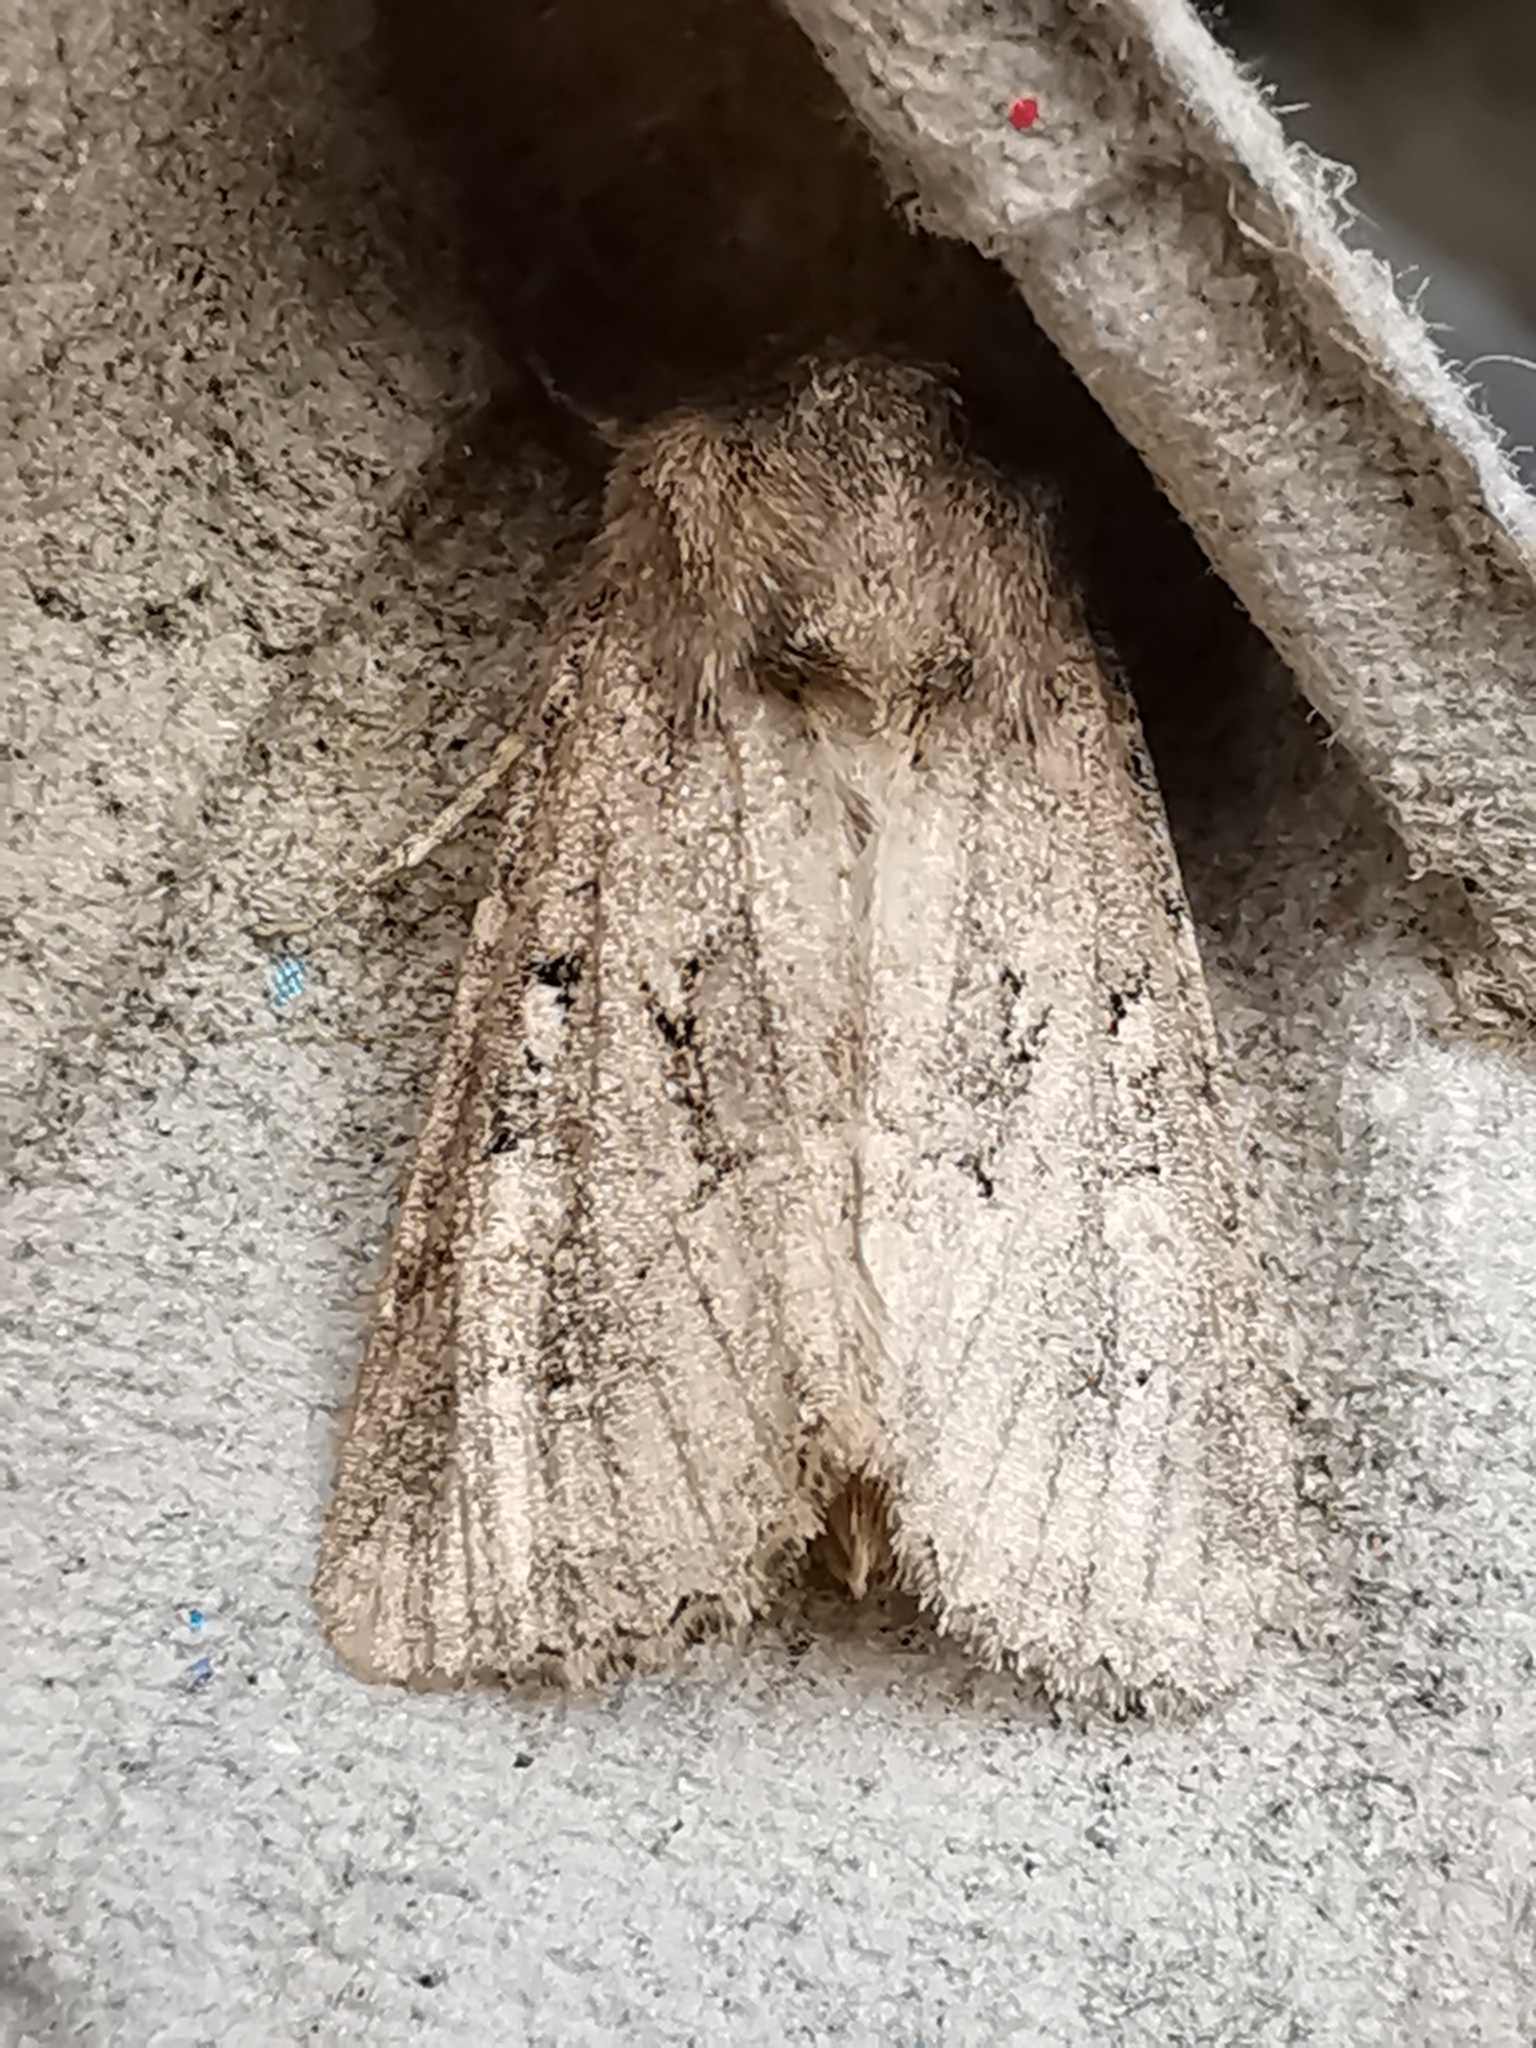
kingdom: Animalia
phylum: Arthropoda
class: Insecta
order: Lepidoptera
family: Noctuidae
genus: Luperina
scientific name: Luperina testacea
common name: Flounced rustic
